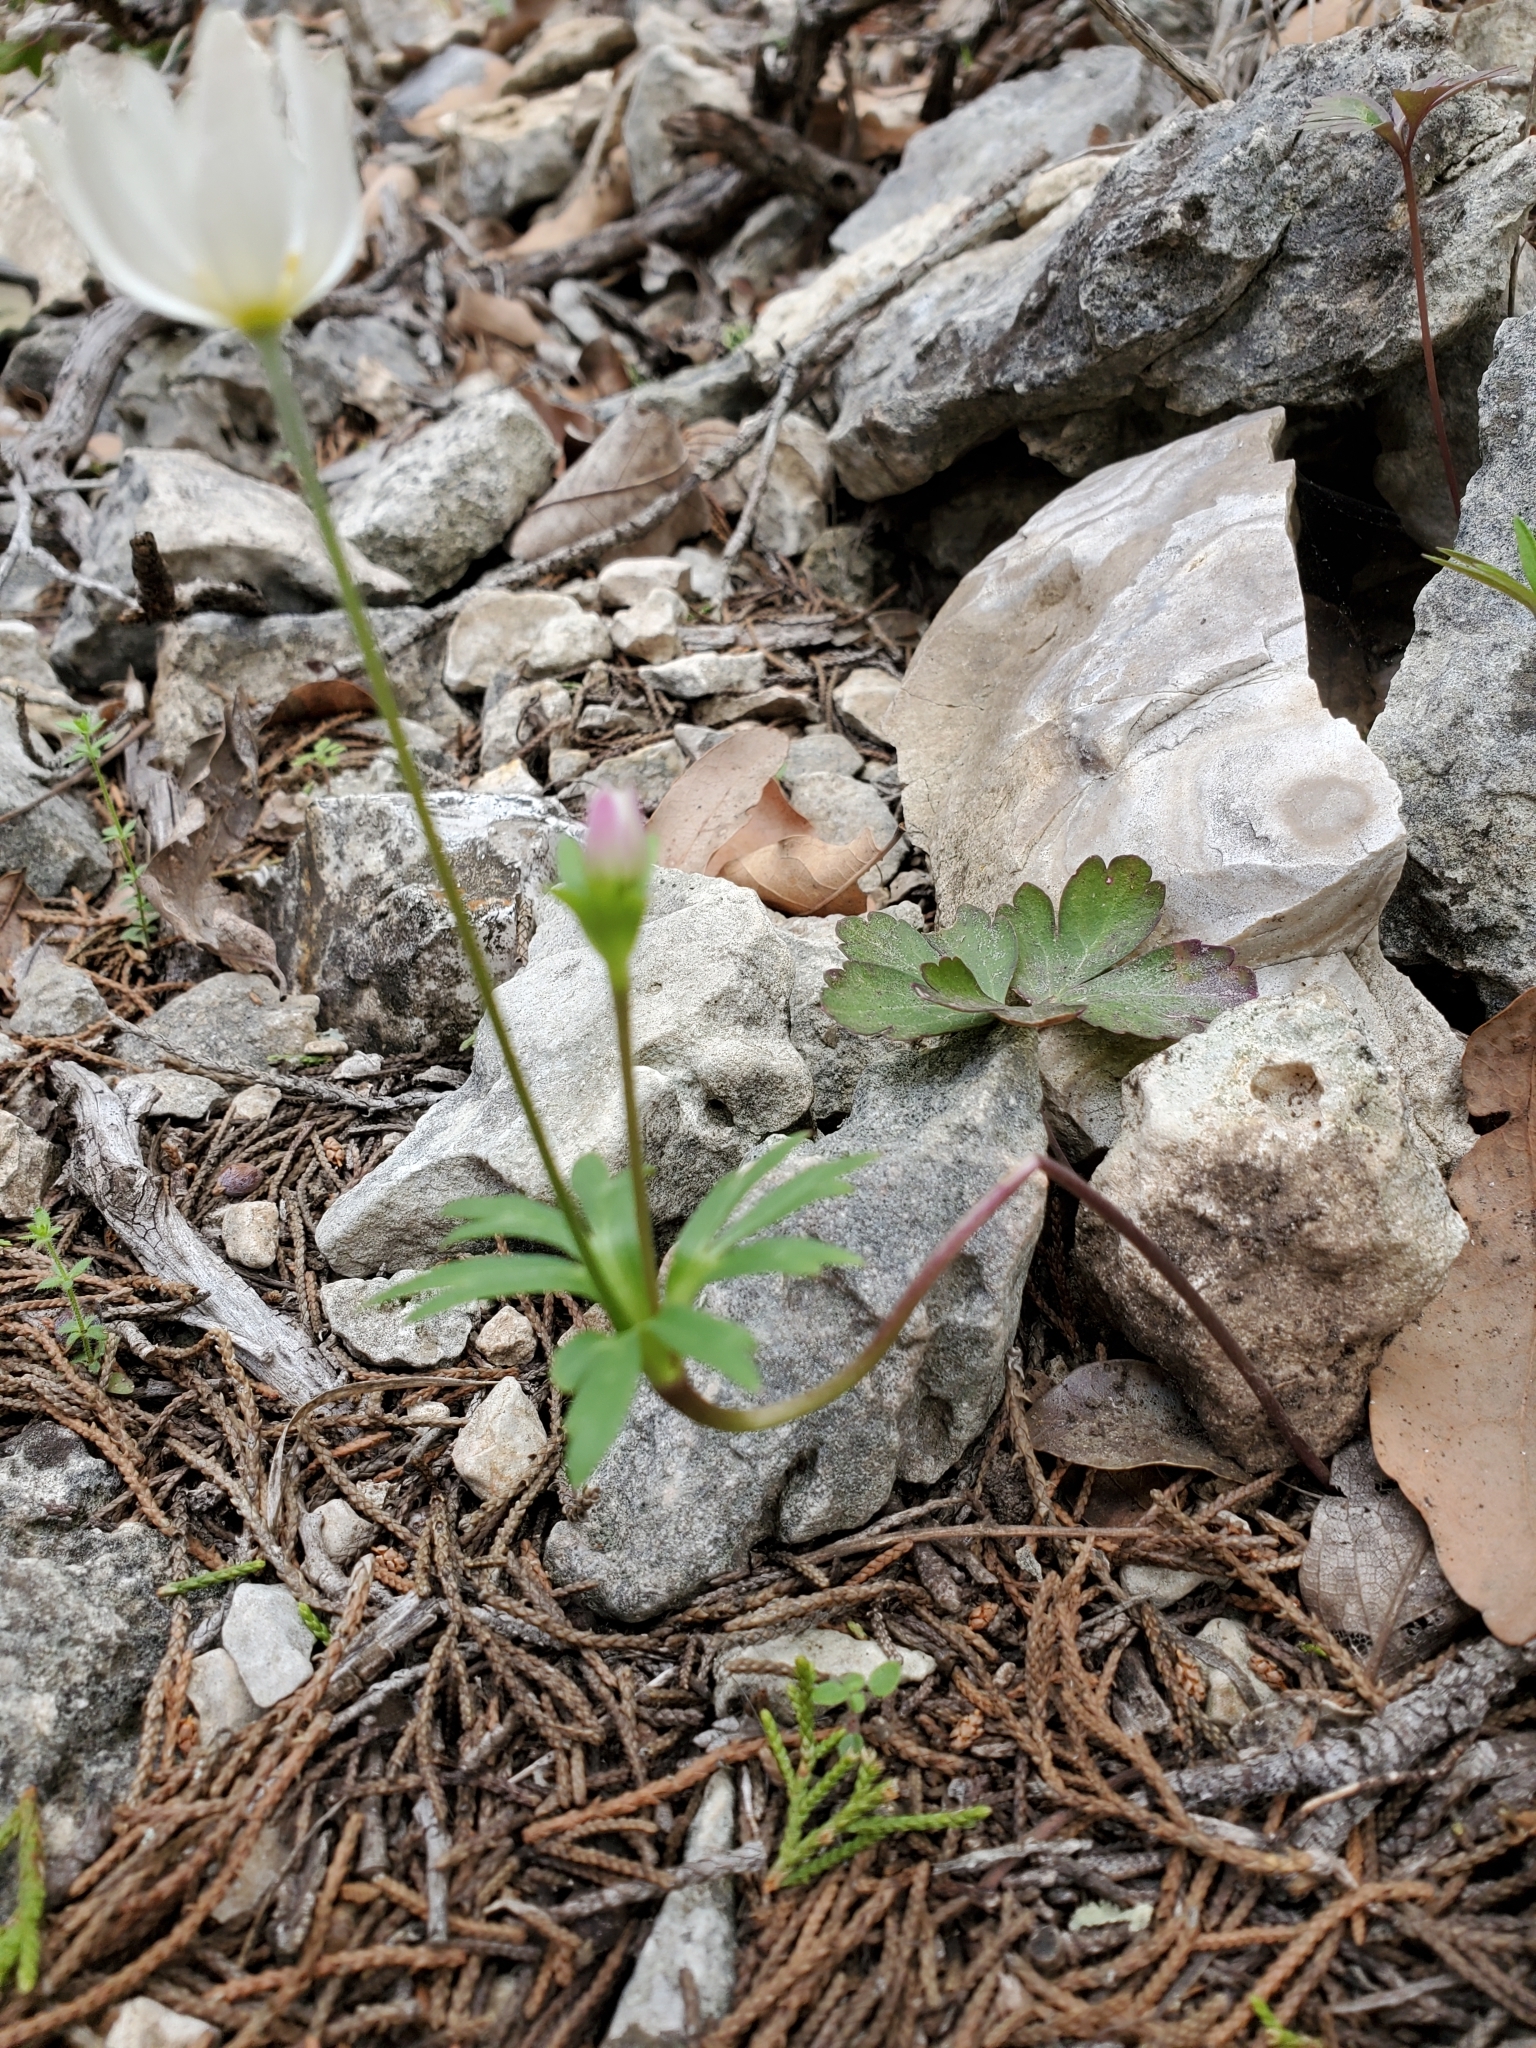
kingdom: Plantae
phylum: Tracheophyta
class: Magnoliopsida
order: Ranunculales
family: Ranunculaceae
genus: Anemone
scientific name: Anemone edwardsiana
